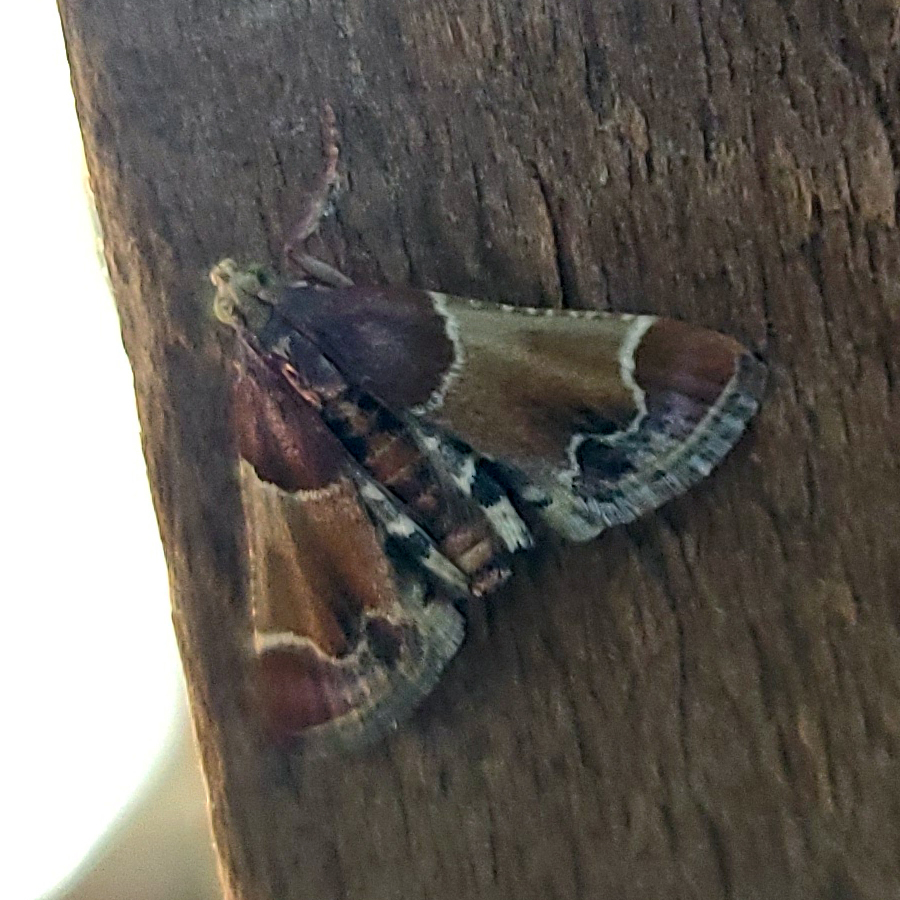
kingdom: Animalia
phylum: Arthropoda
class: Insecta
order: Lepidoptera
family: Pyralidae
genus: Pyralis
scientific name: Pyralis farinalis
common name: Meal moth
